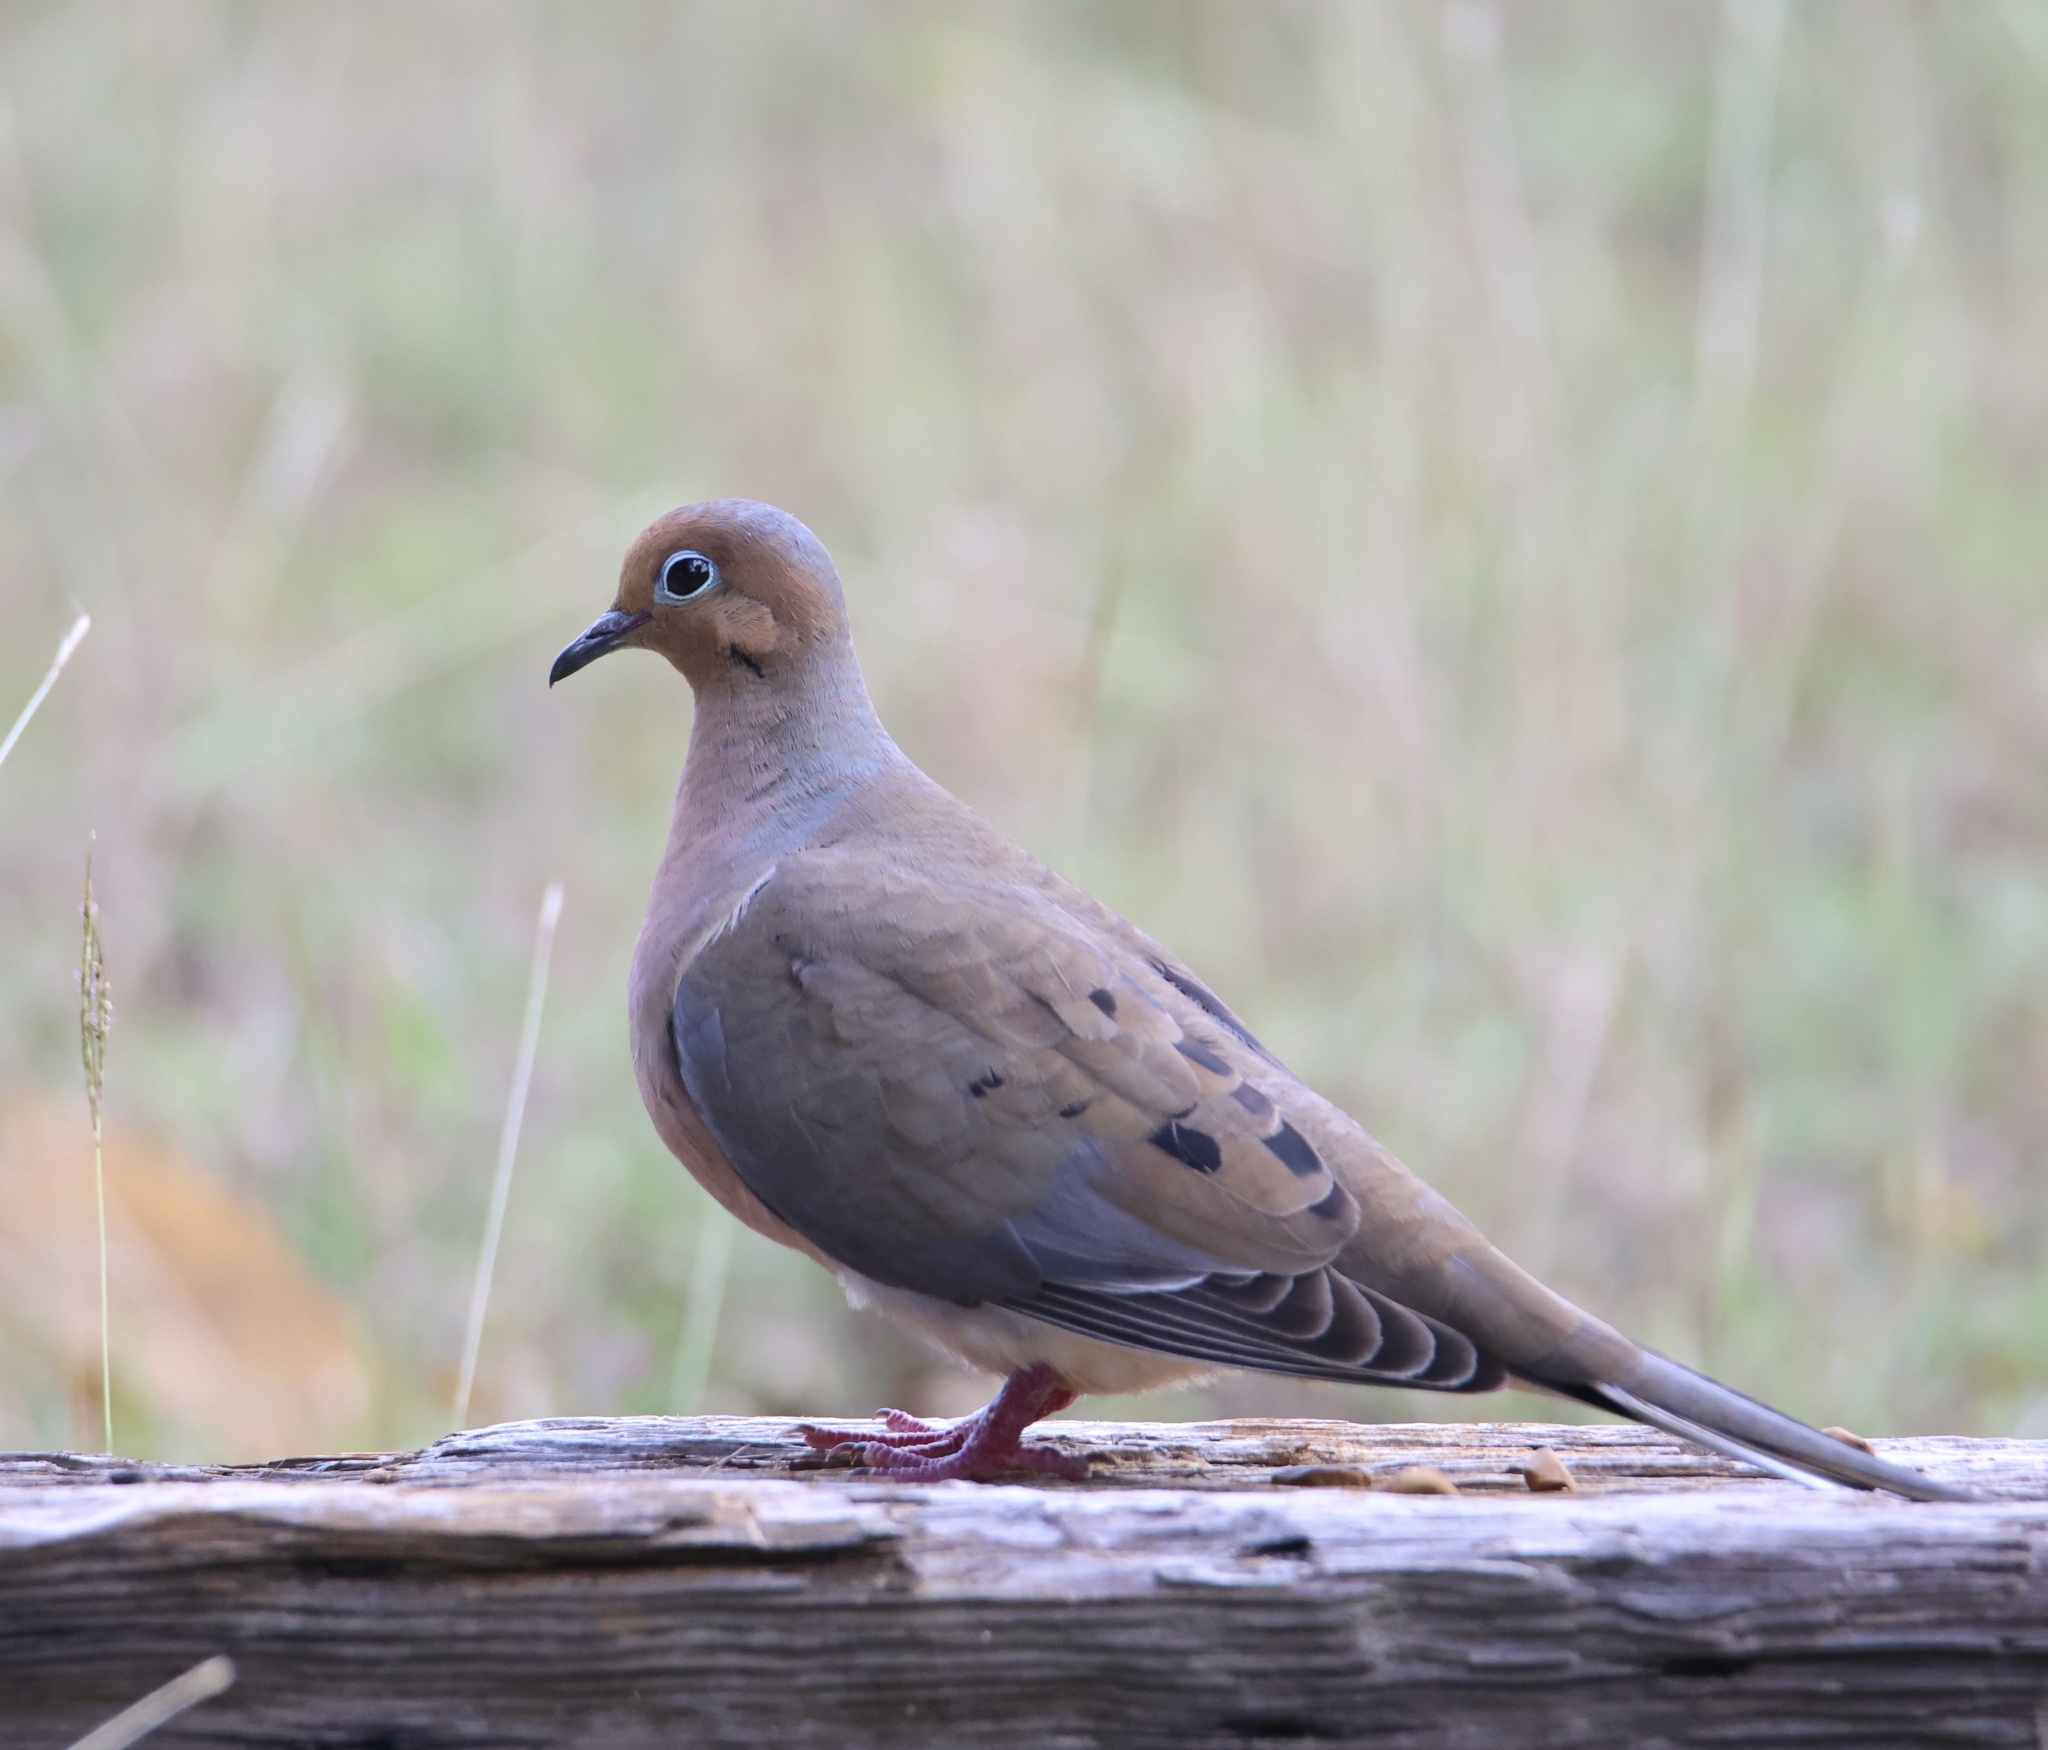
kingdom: Animalia
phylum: Chordata
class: Aves
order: Columbiformes
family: Columbidae
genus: Zenaida
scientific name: Zenaida macroura
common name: Mourning dove
